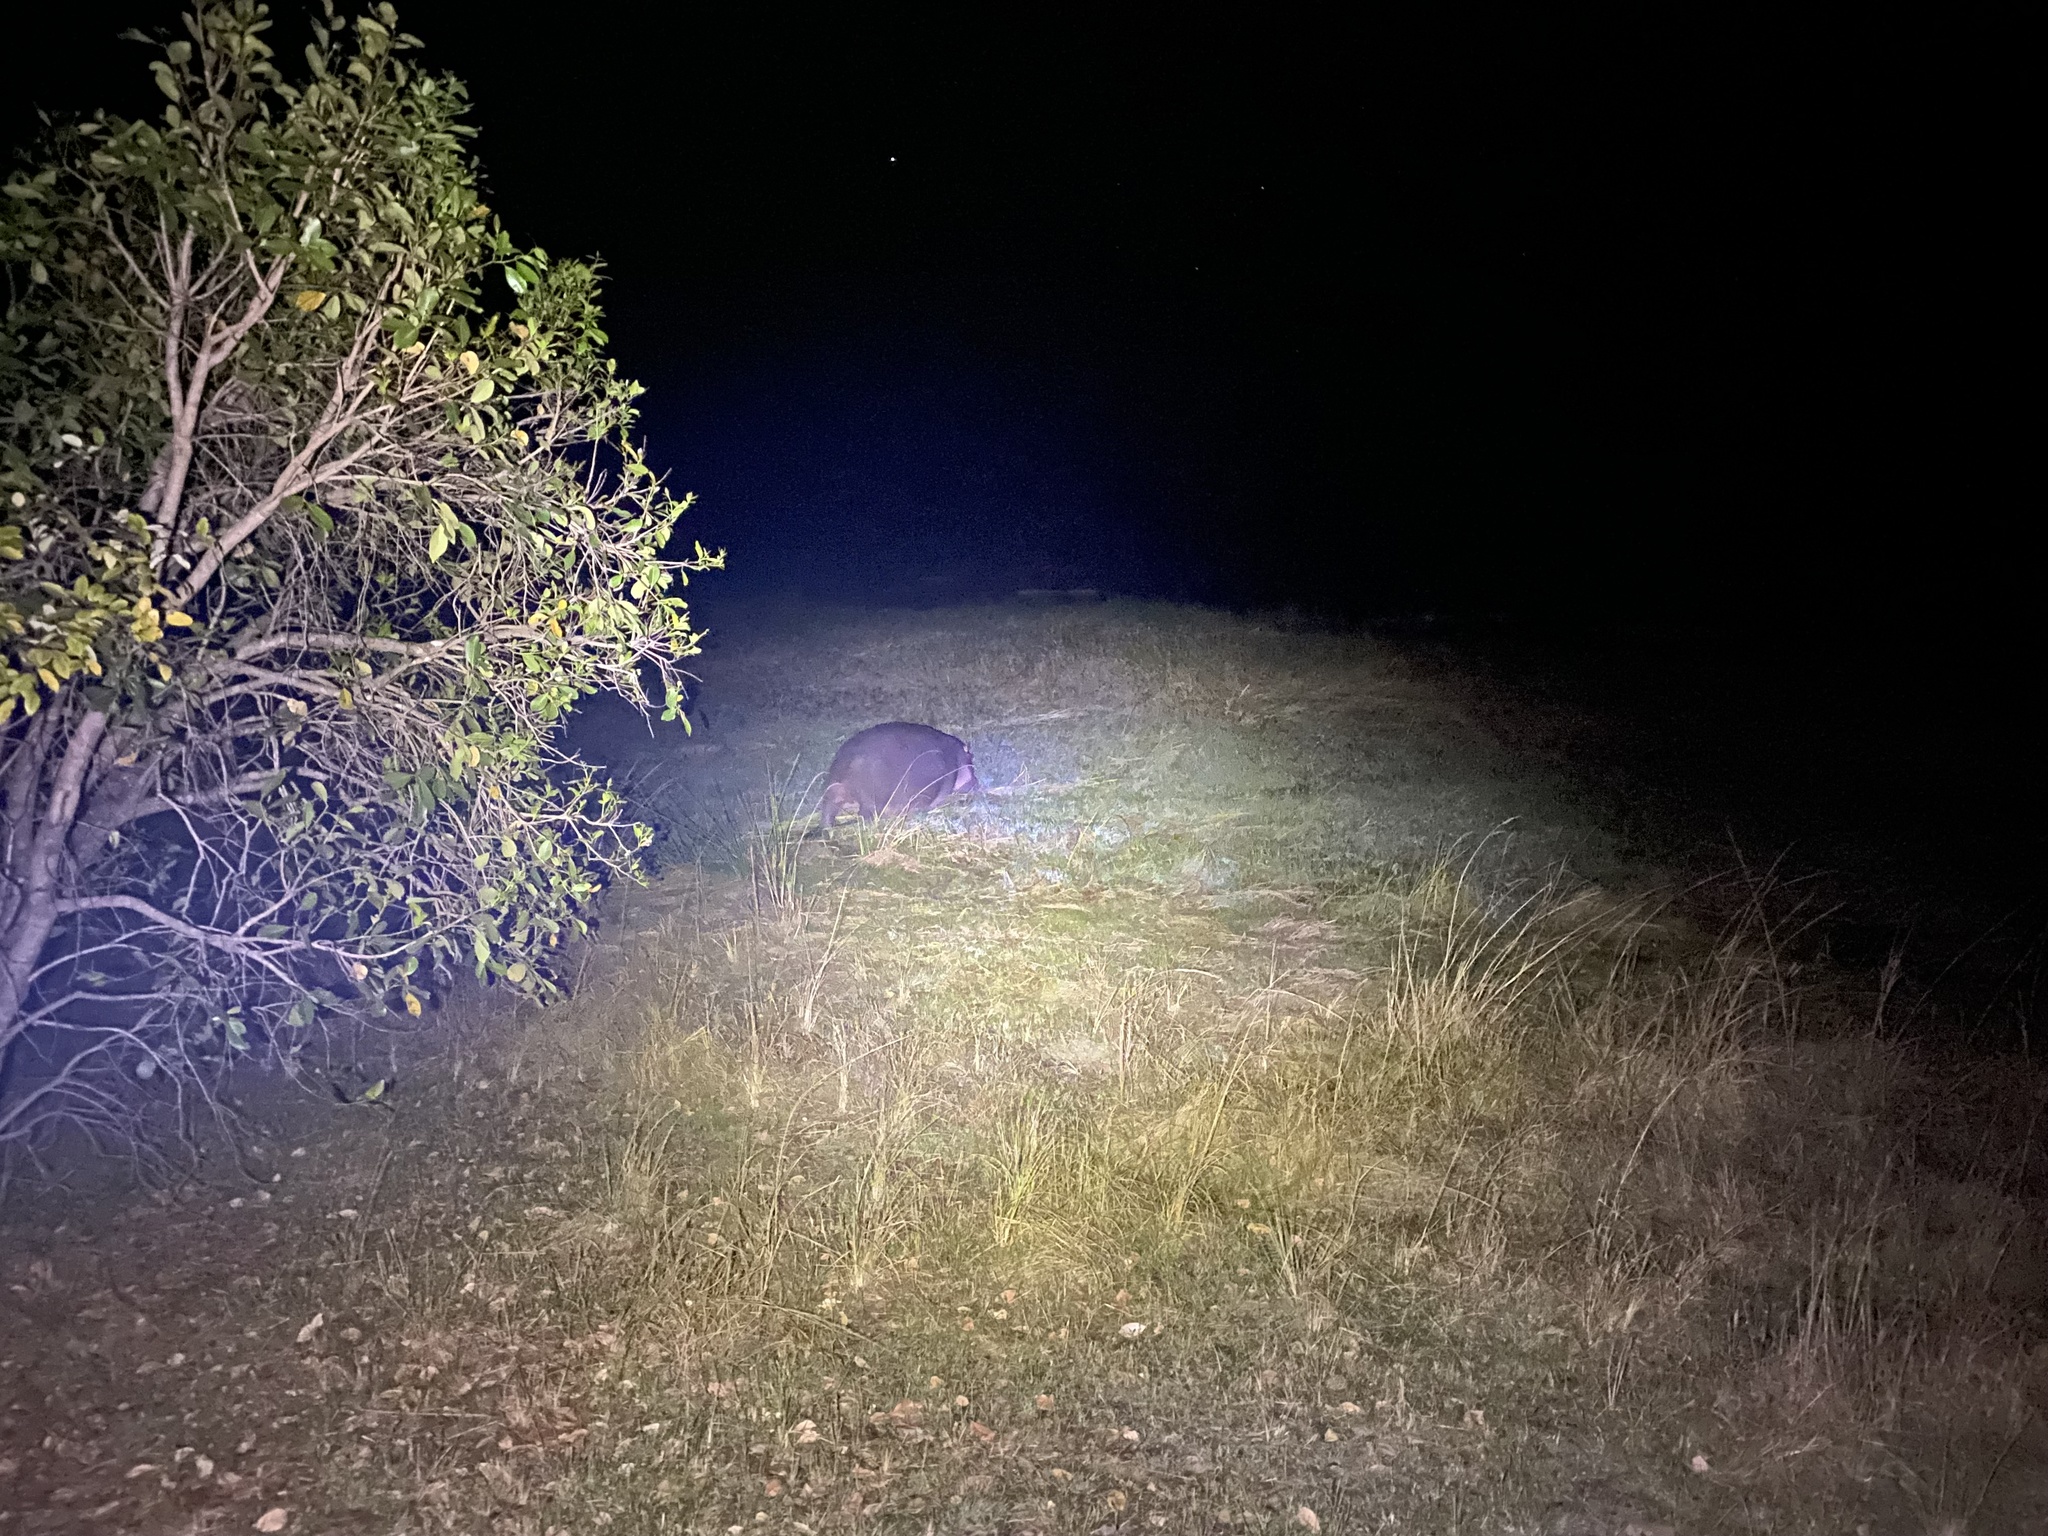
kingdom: Animalia
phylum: Chordata
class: Mammalia
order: Artiodactyla
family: Hippopotamidae
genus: Hippopotamus
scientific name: Hippopotamus amphibius
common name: Common hippopotamus
